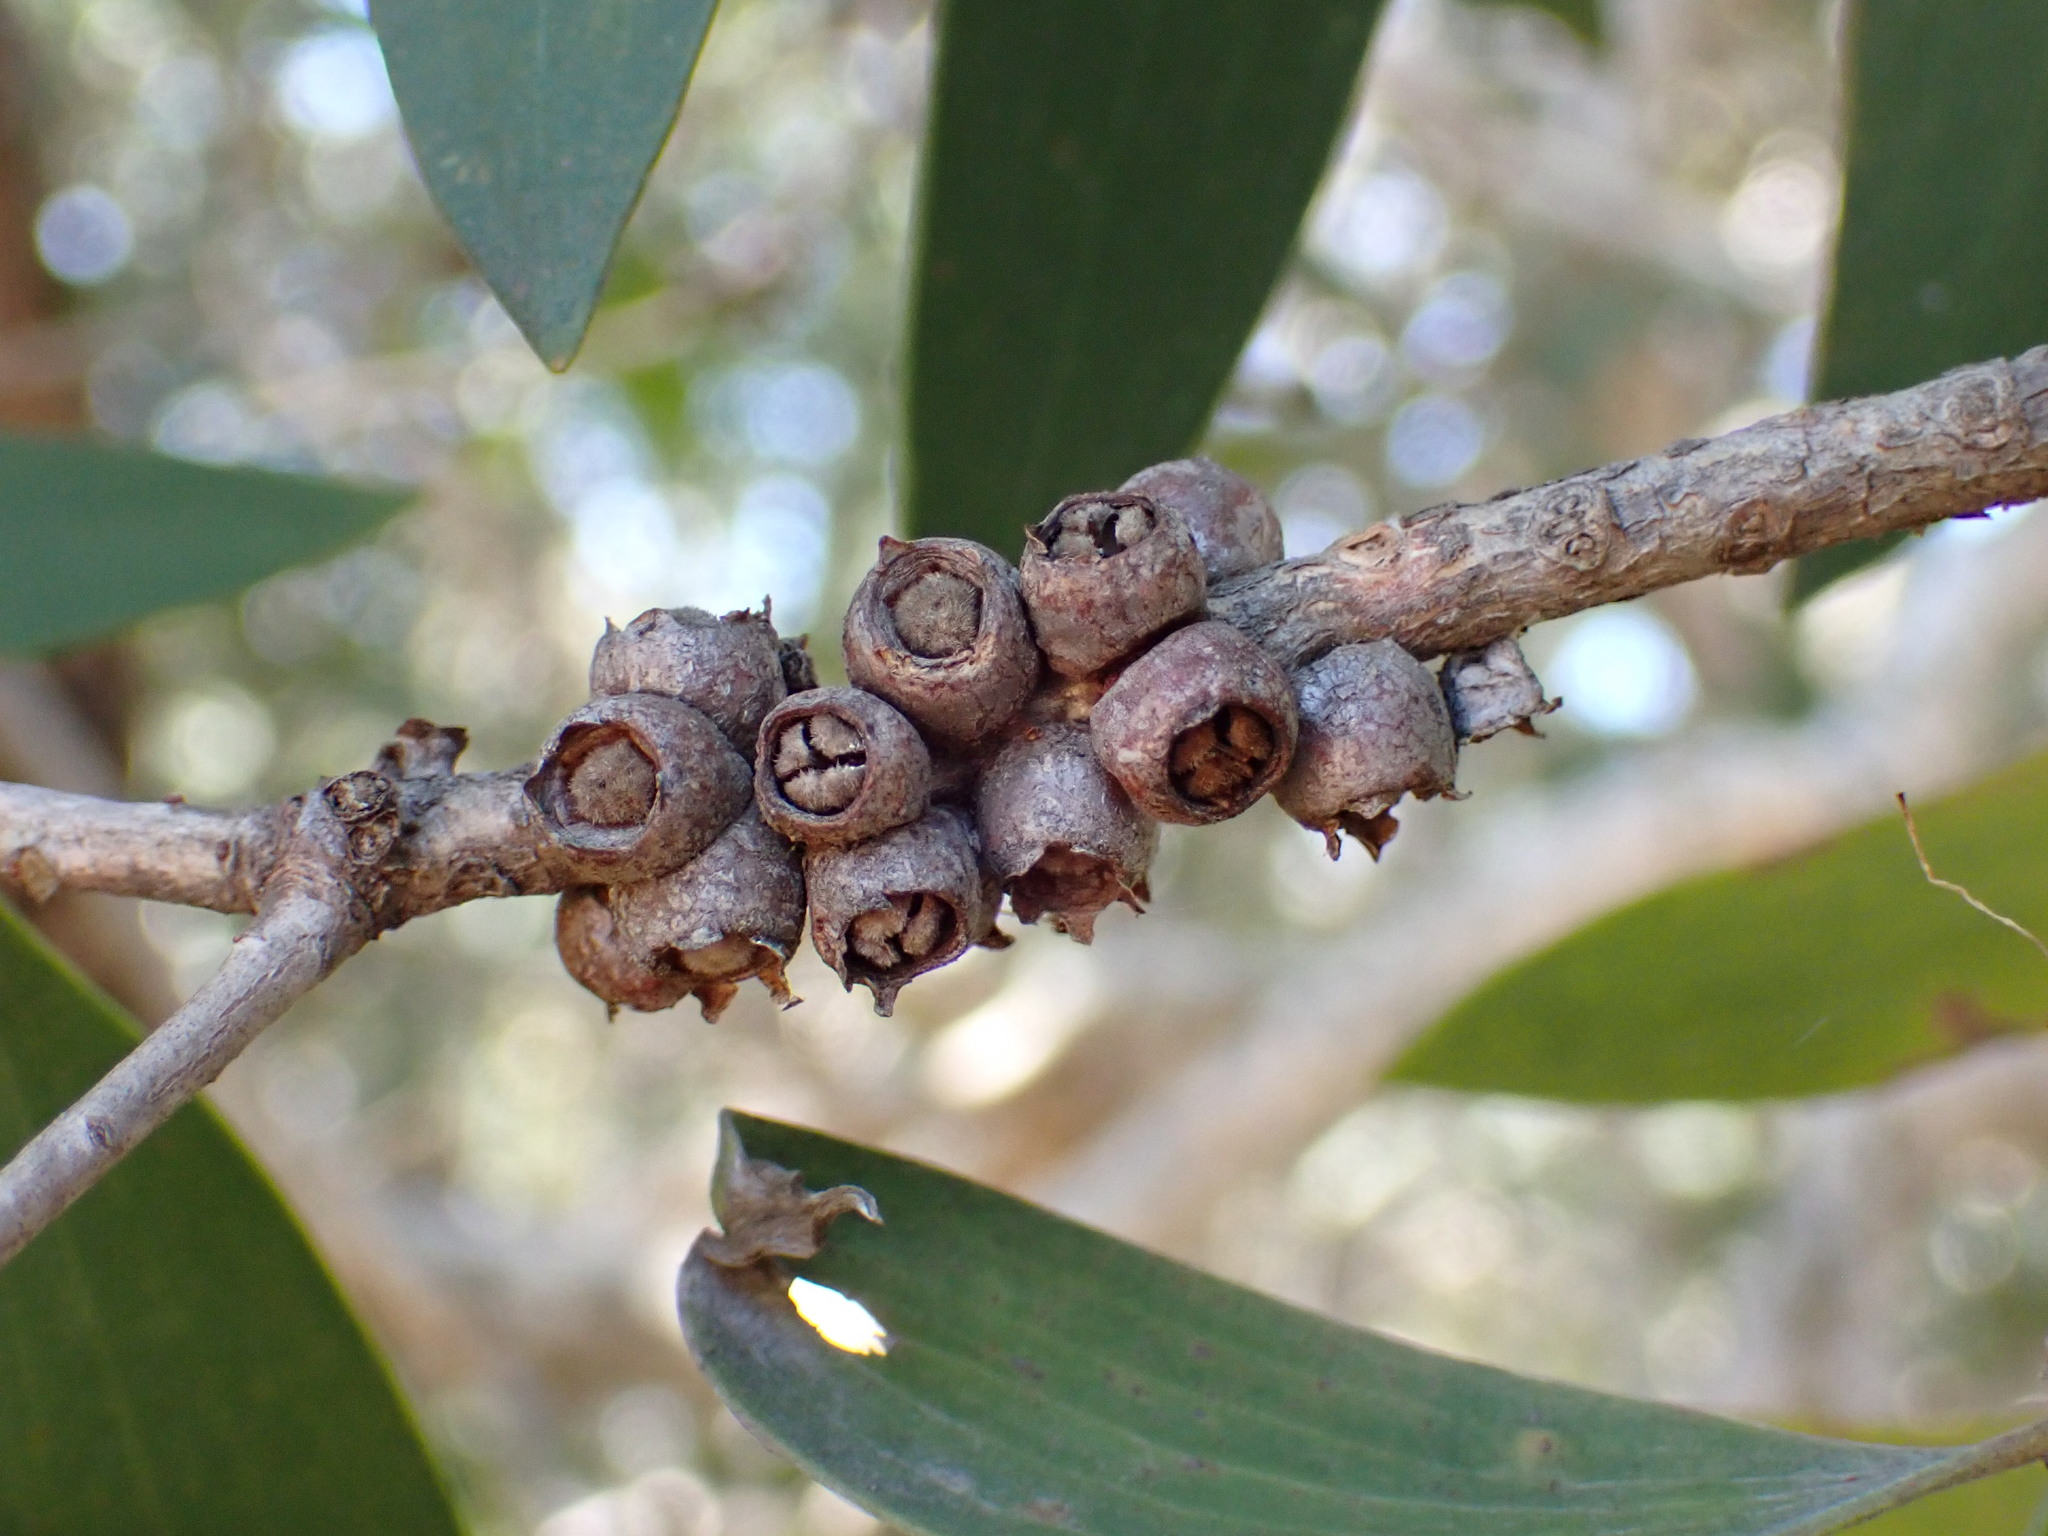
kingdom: Plantae
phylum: Tracheophyta
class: Magnoliopsida
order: Myrtales
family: Myrtaceae
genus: Melaleuca
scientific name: Melaleuca quinquenervia
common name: Punktree
